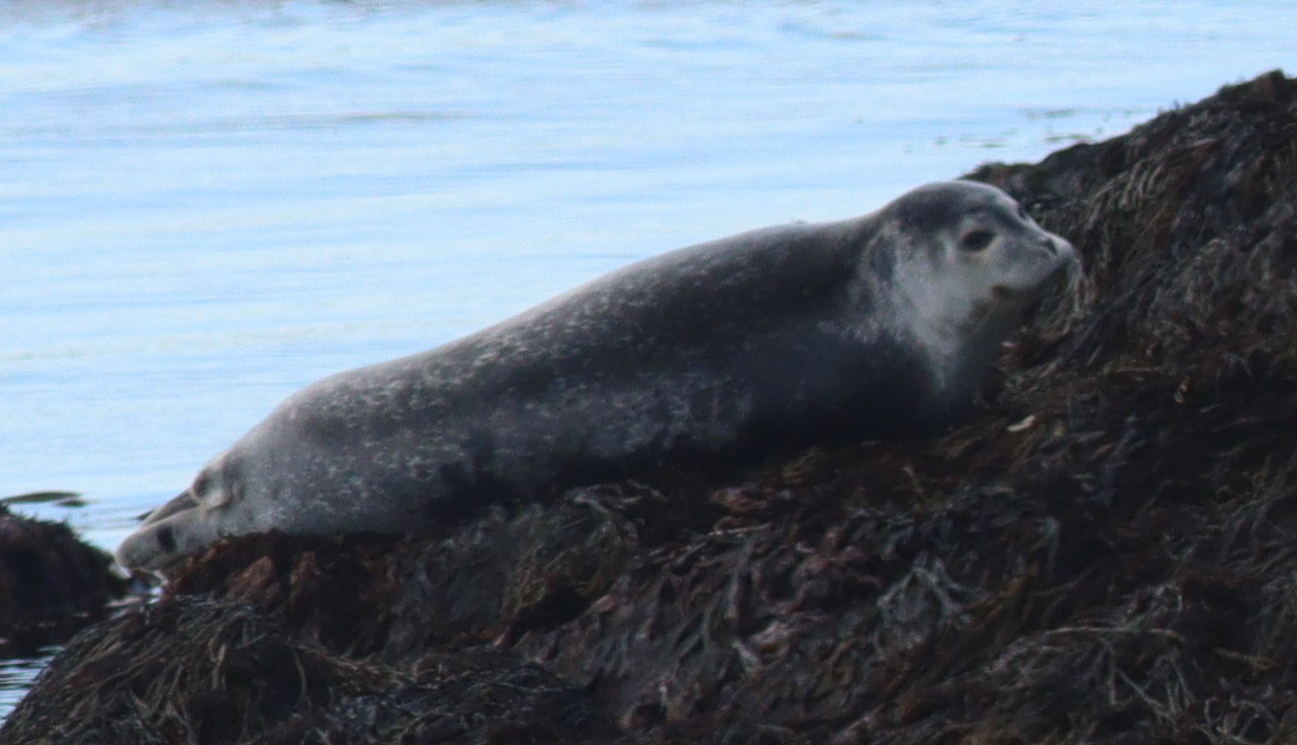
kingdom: Animalia
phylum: Chordata
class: Mammalia
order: Carnivora
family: Phocidae
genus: Phoca
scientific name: Phoca vitulina
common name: Harbor seal
